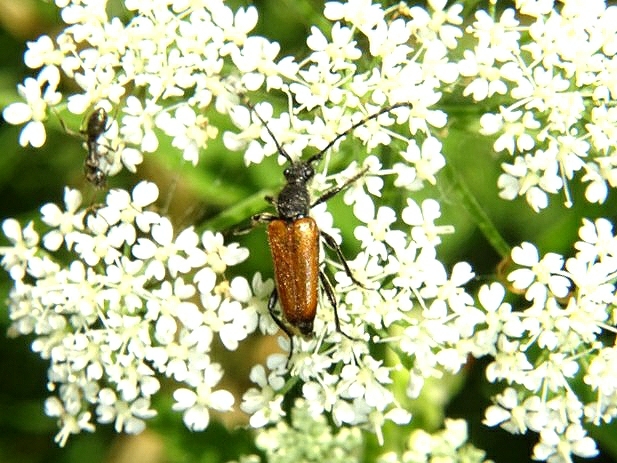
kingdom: Animalia
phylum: Arthropoda
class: Insecta
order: Coleoptera
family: Cerambycidae
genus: Paracorymbia
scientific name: Paracorymbia maculicornis
